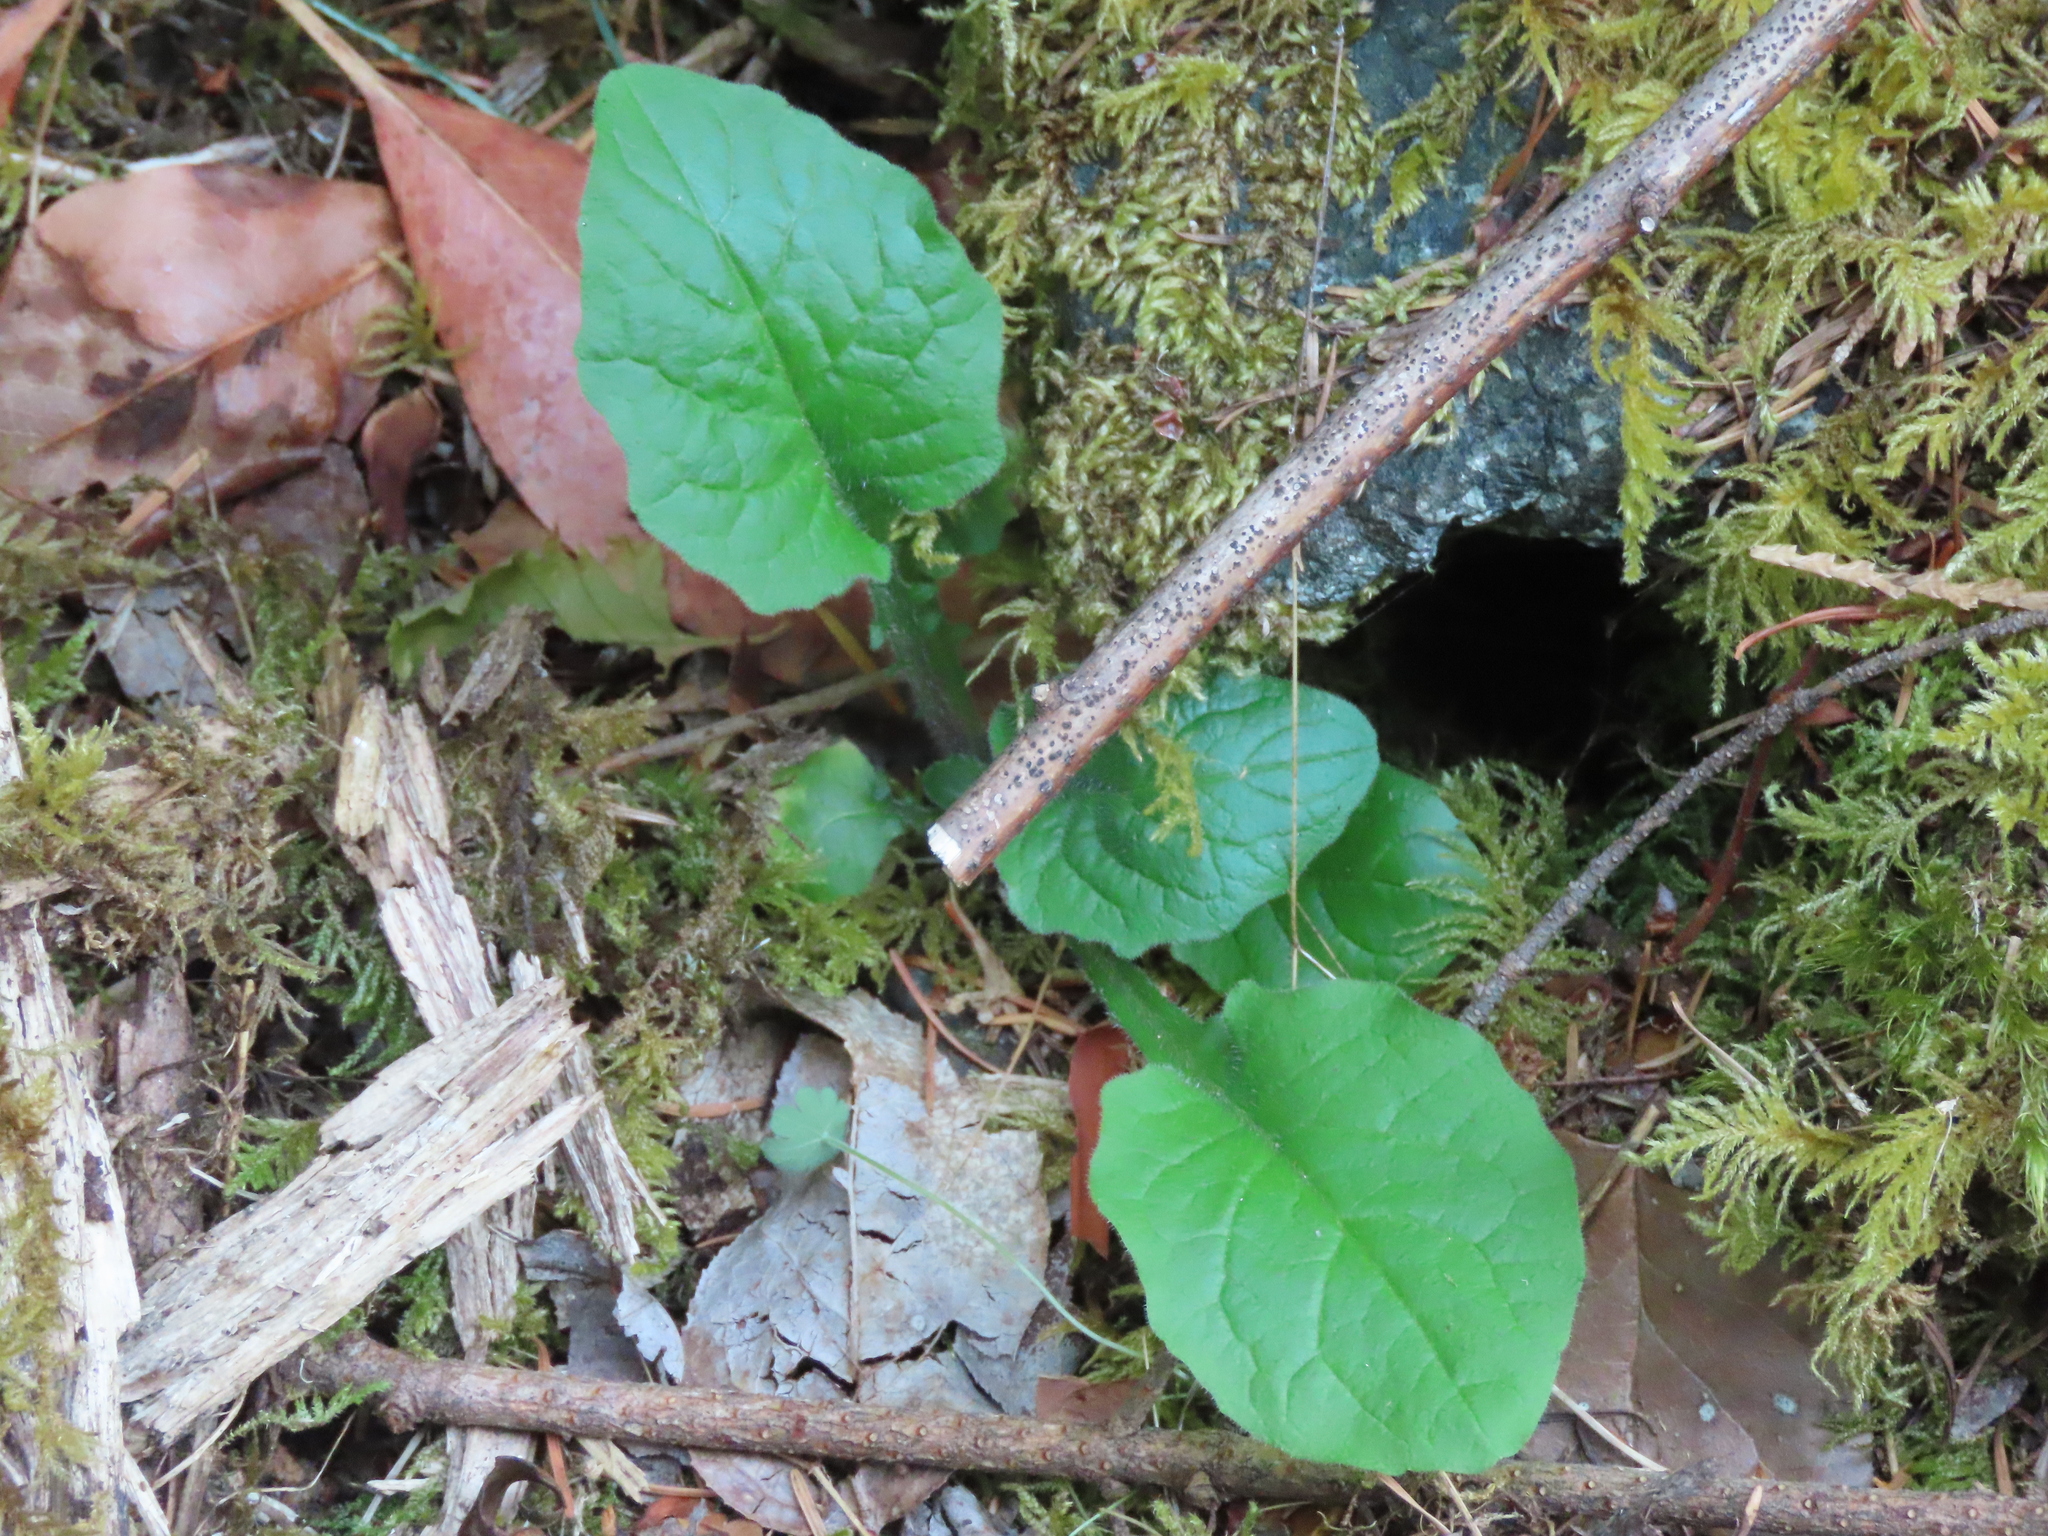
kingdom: Plantae
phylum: Tracheophyta
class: Magnoliopsida
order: Asterales
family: Asteraceae
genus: Lapsana
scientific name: Lapsana communis
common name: Nipplewort
